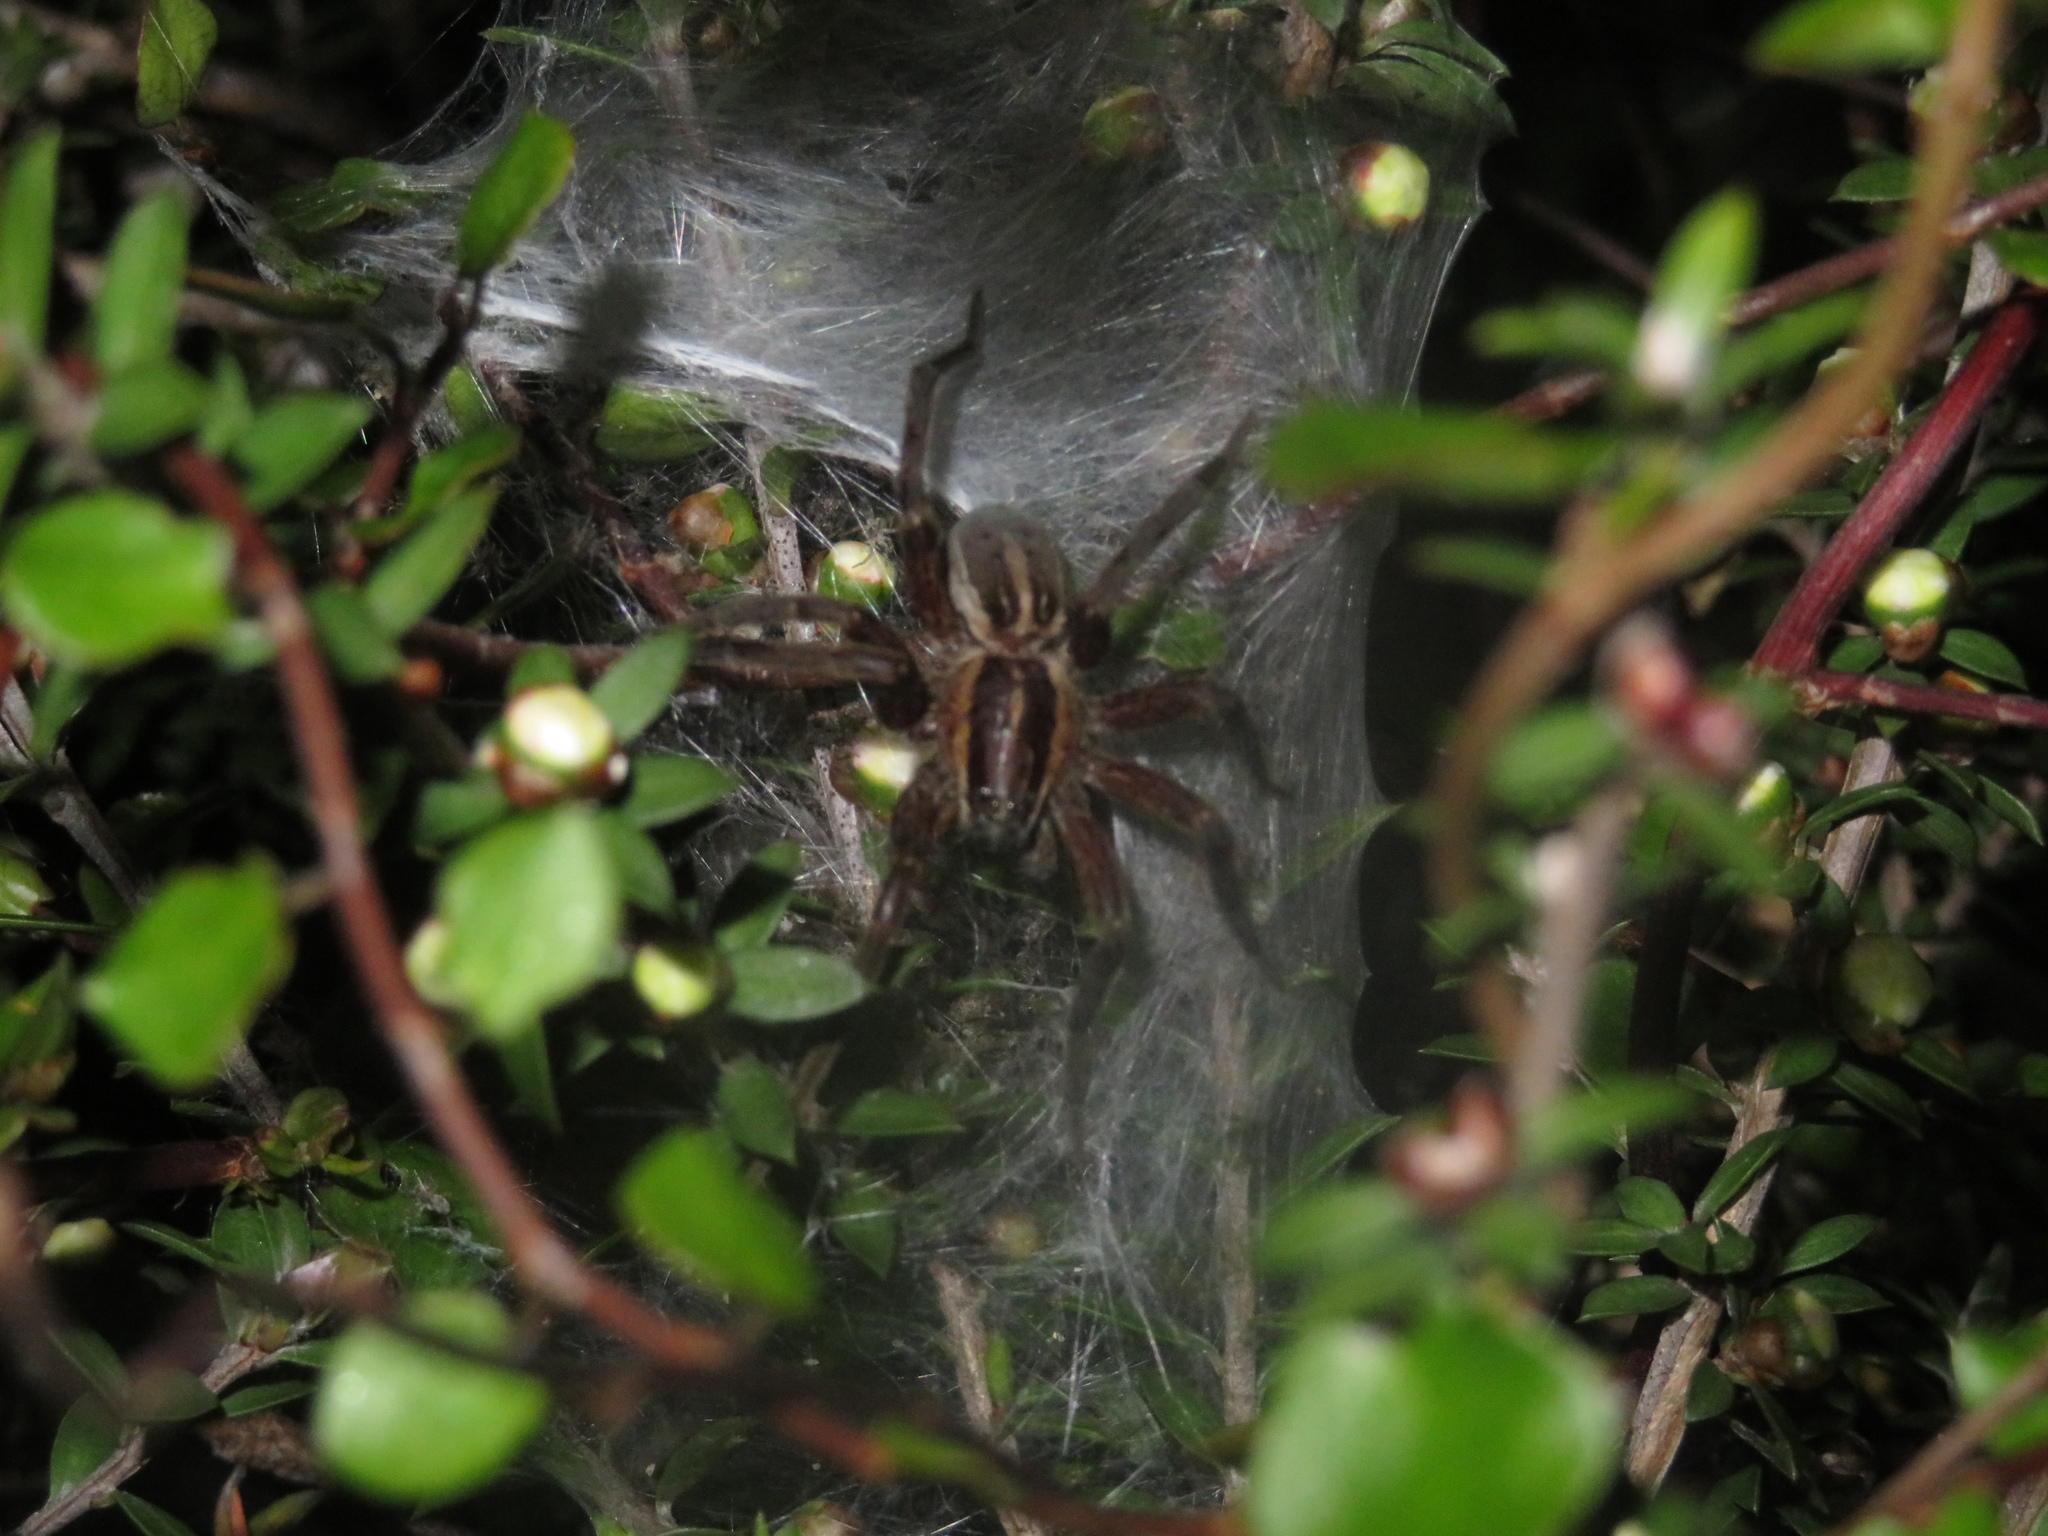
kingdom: Animalia
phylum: Arthropoda
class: Arachnida
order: Araneae
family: Pisauridae
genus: Dolomedes
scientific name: Dolomedes minor
